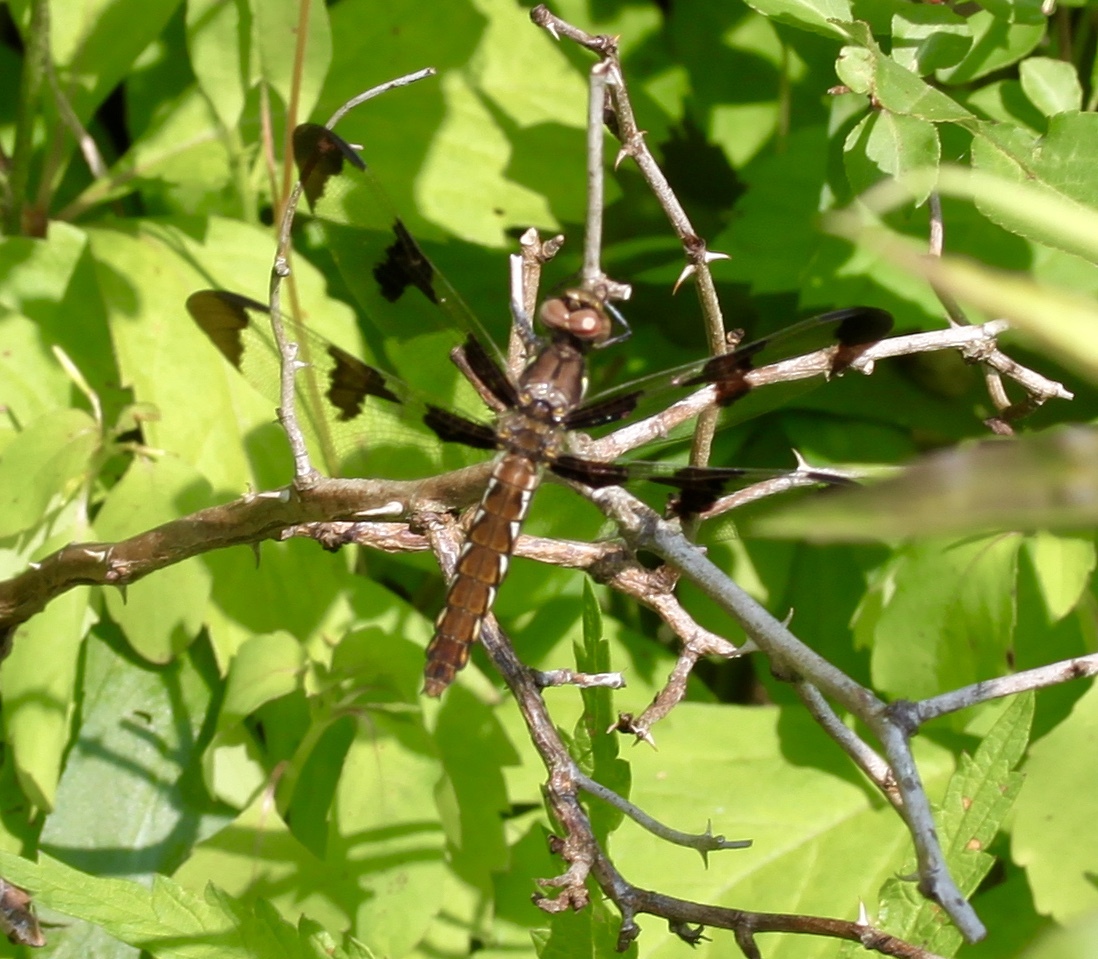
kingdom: Animalia
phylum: Arthropoda
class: Insecta
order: Odonata
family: Libellulidae
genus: Plathemis
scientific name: Plathemis lydia
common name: Common whitetail
